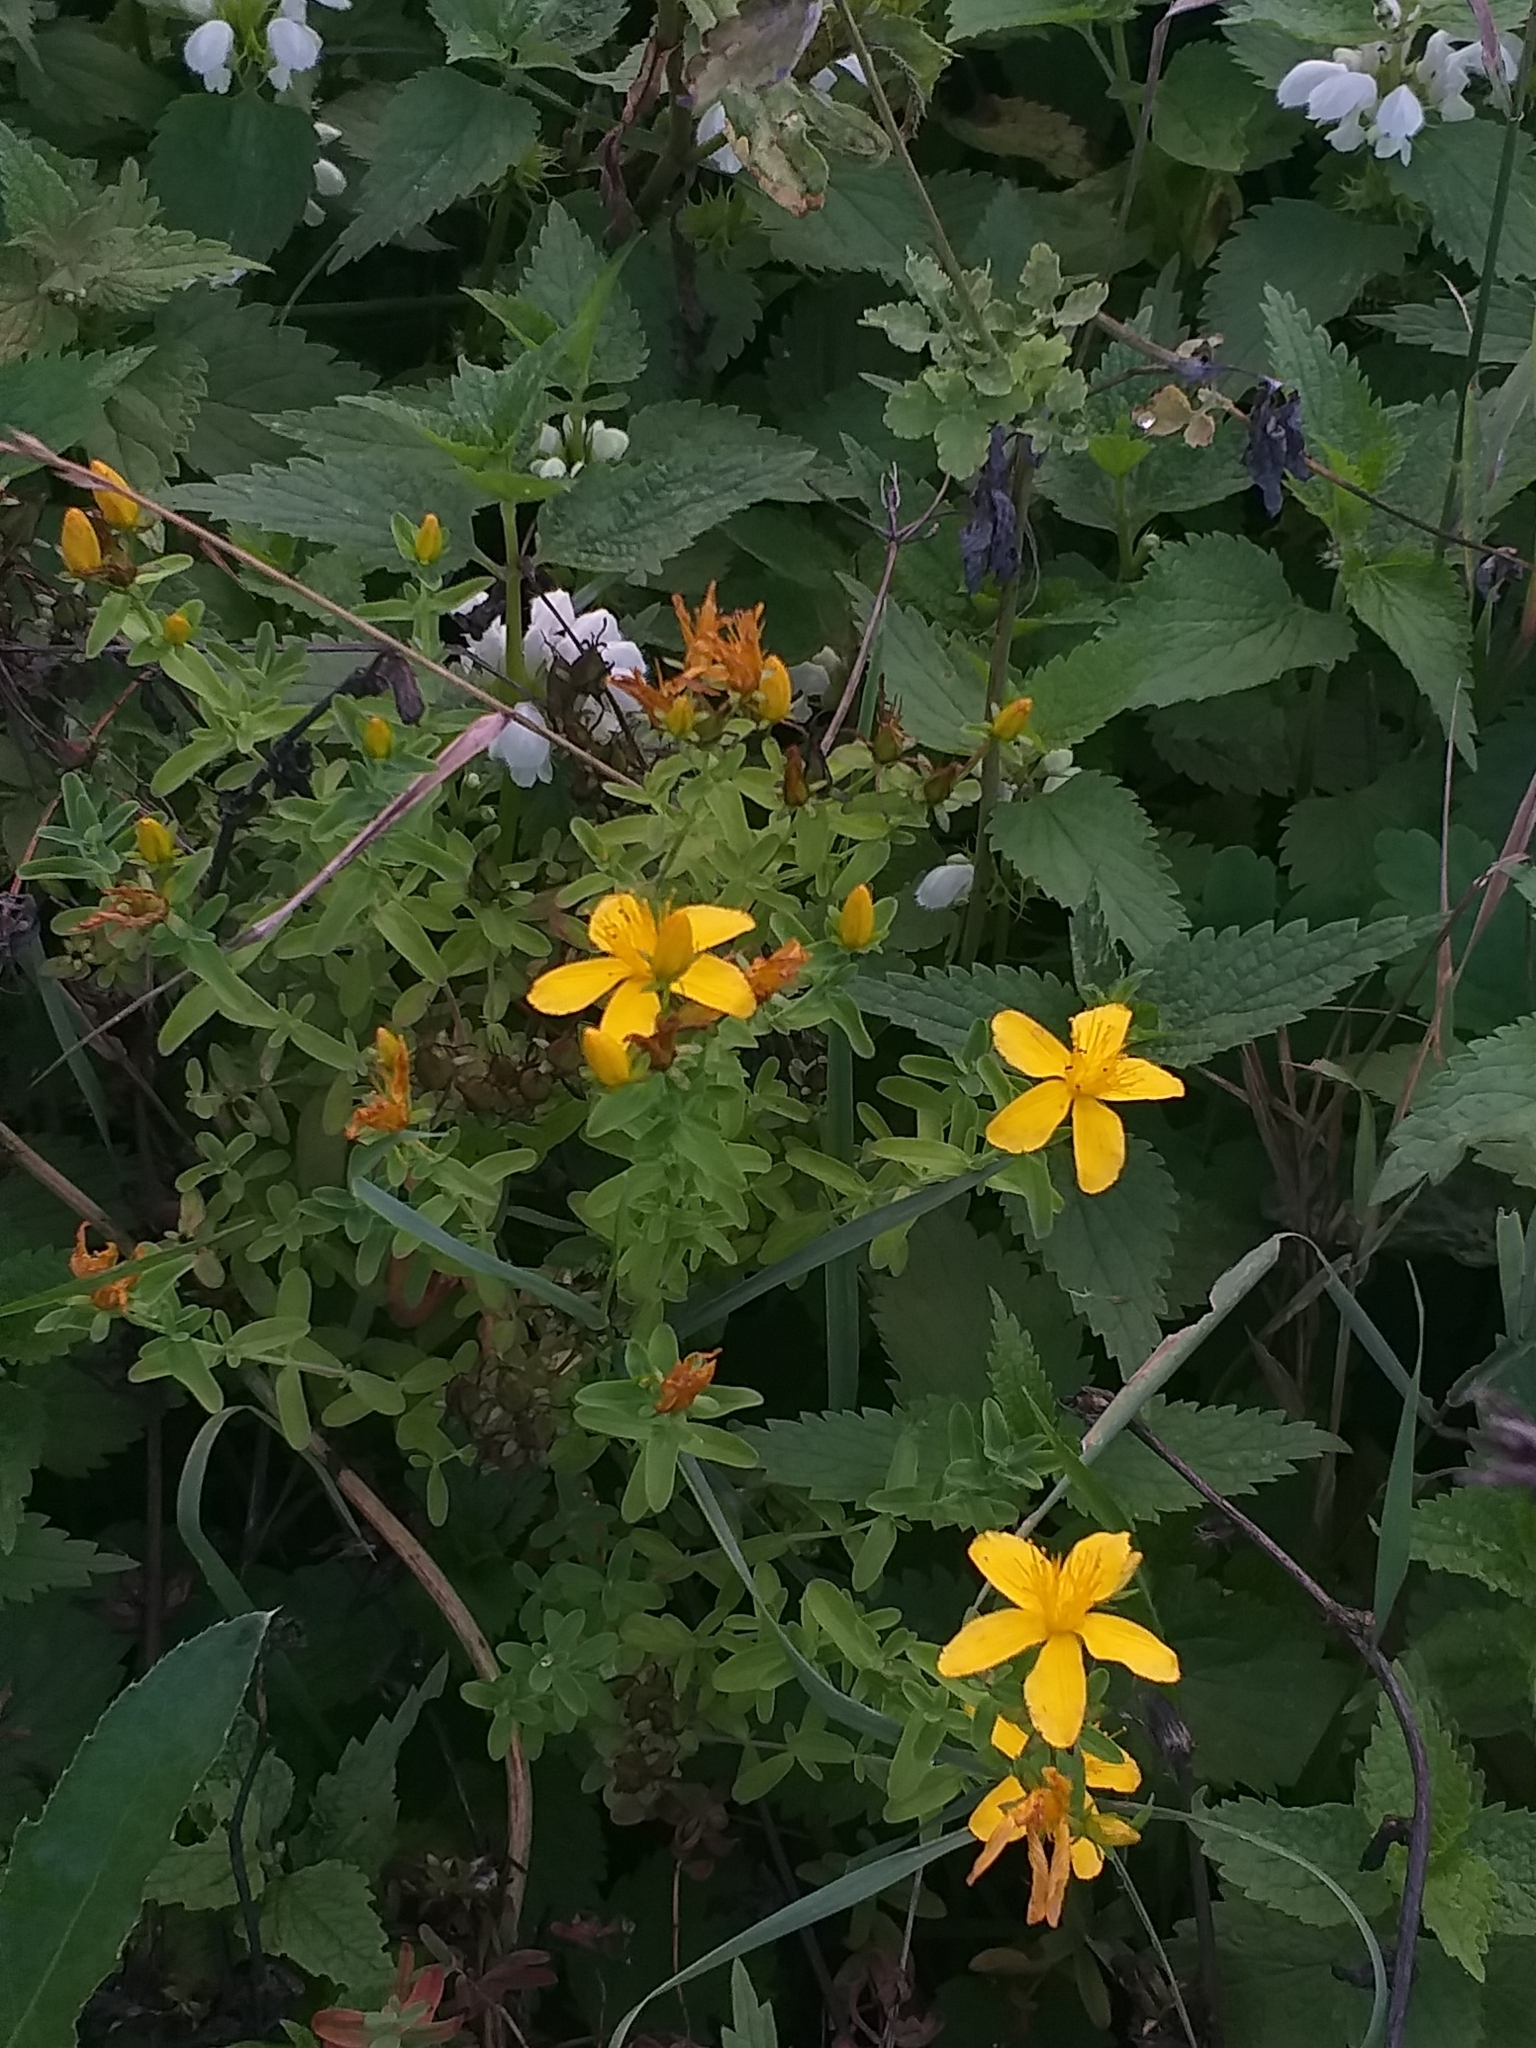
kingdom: Plantae
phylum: Tracheophyta
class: Magnoliopsida
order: Malpighiales
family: Hypericaceae
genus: Hypericum
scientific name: Hypericum perforatum
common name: Common st. johnswort
